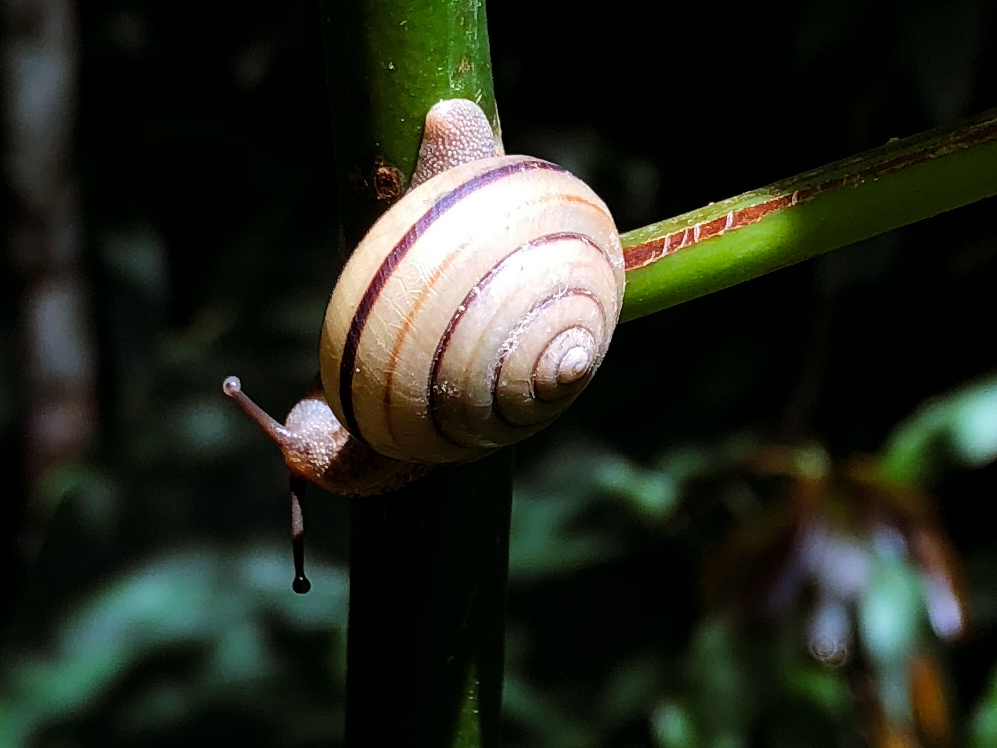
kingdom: Animalia
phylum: Mollusca
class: Gastropoda
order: Stylommatophora
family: Camaenidae
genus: Pancala
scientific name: Pancala batanica
